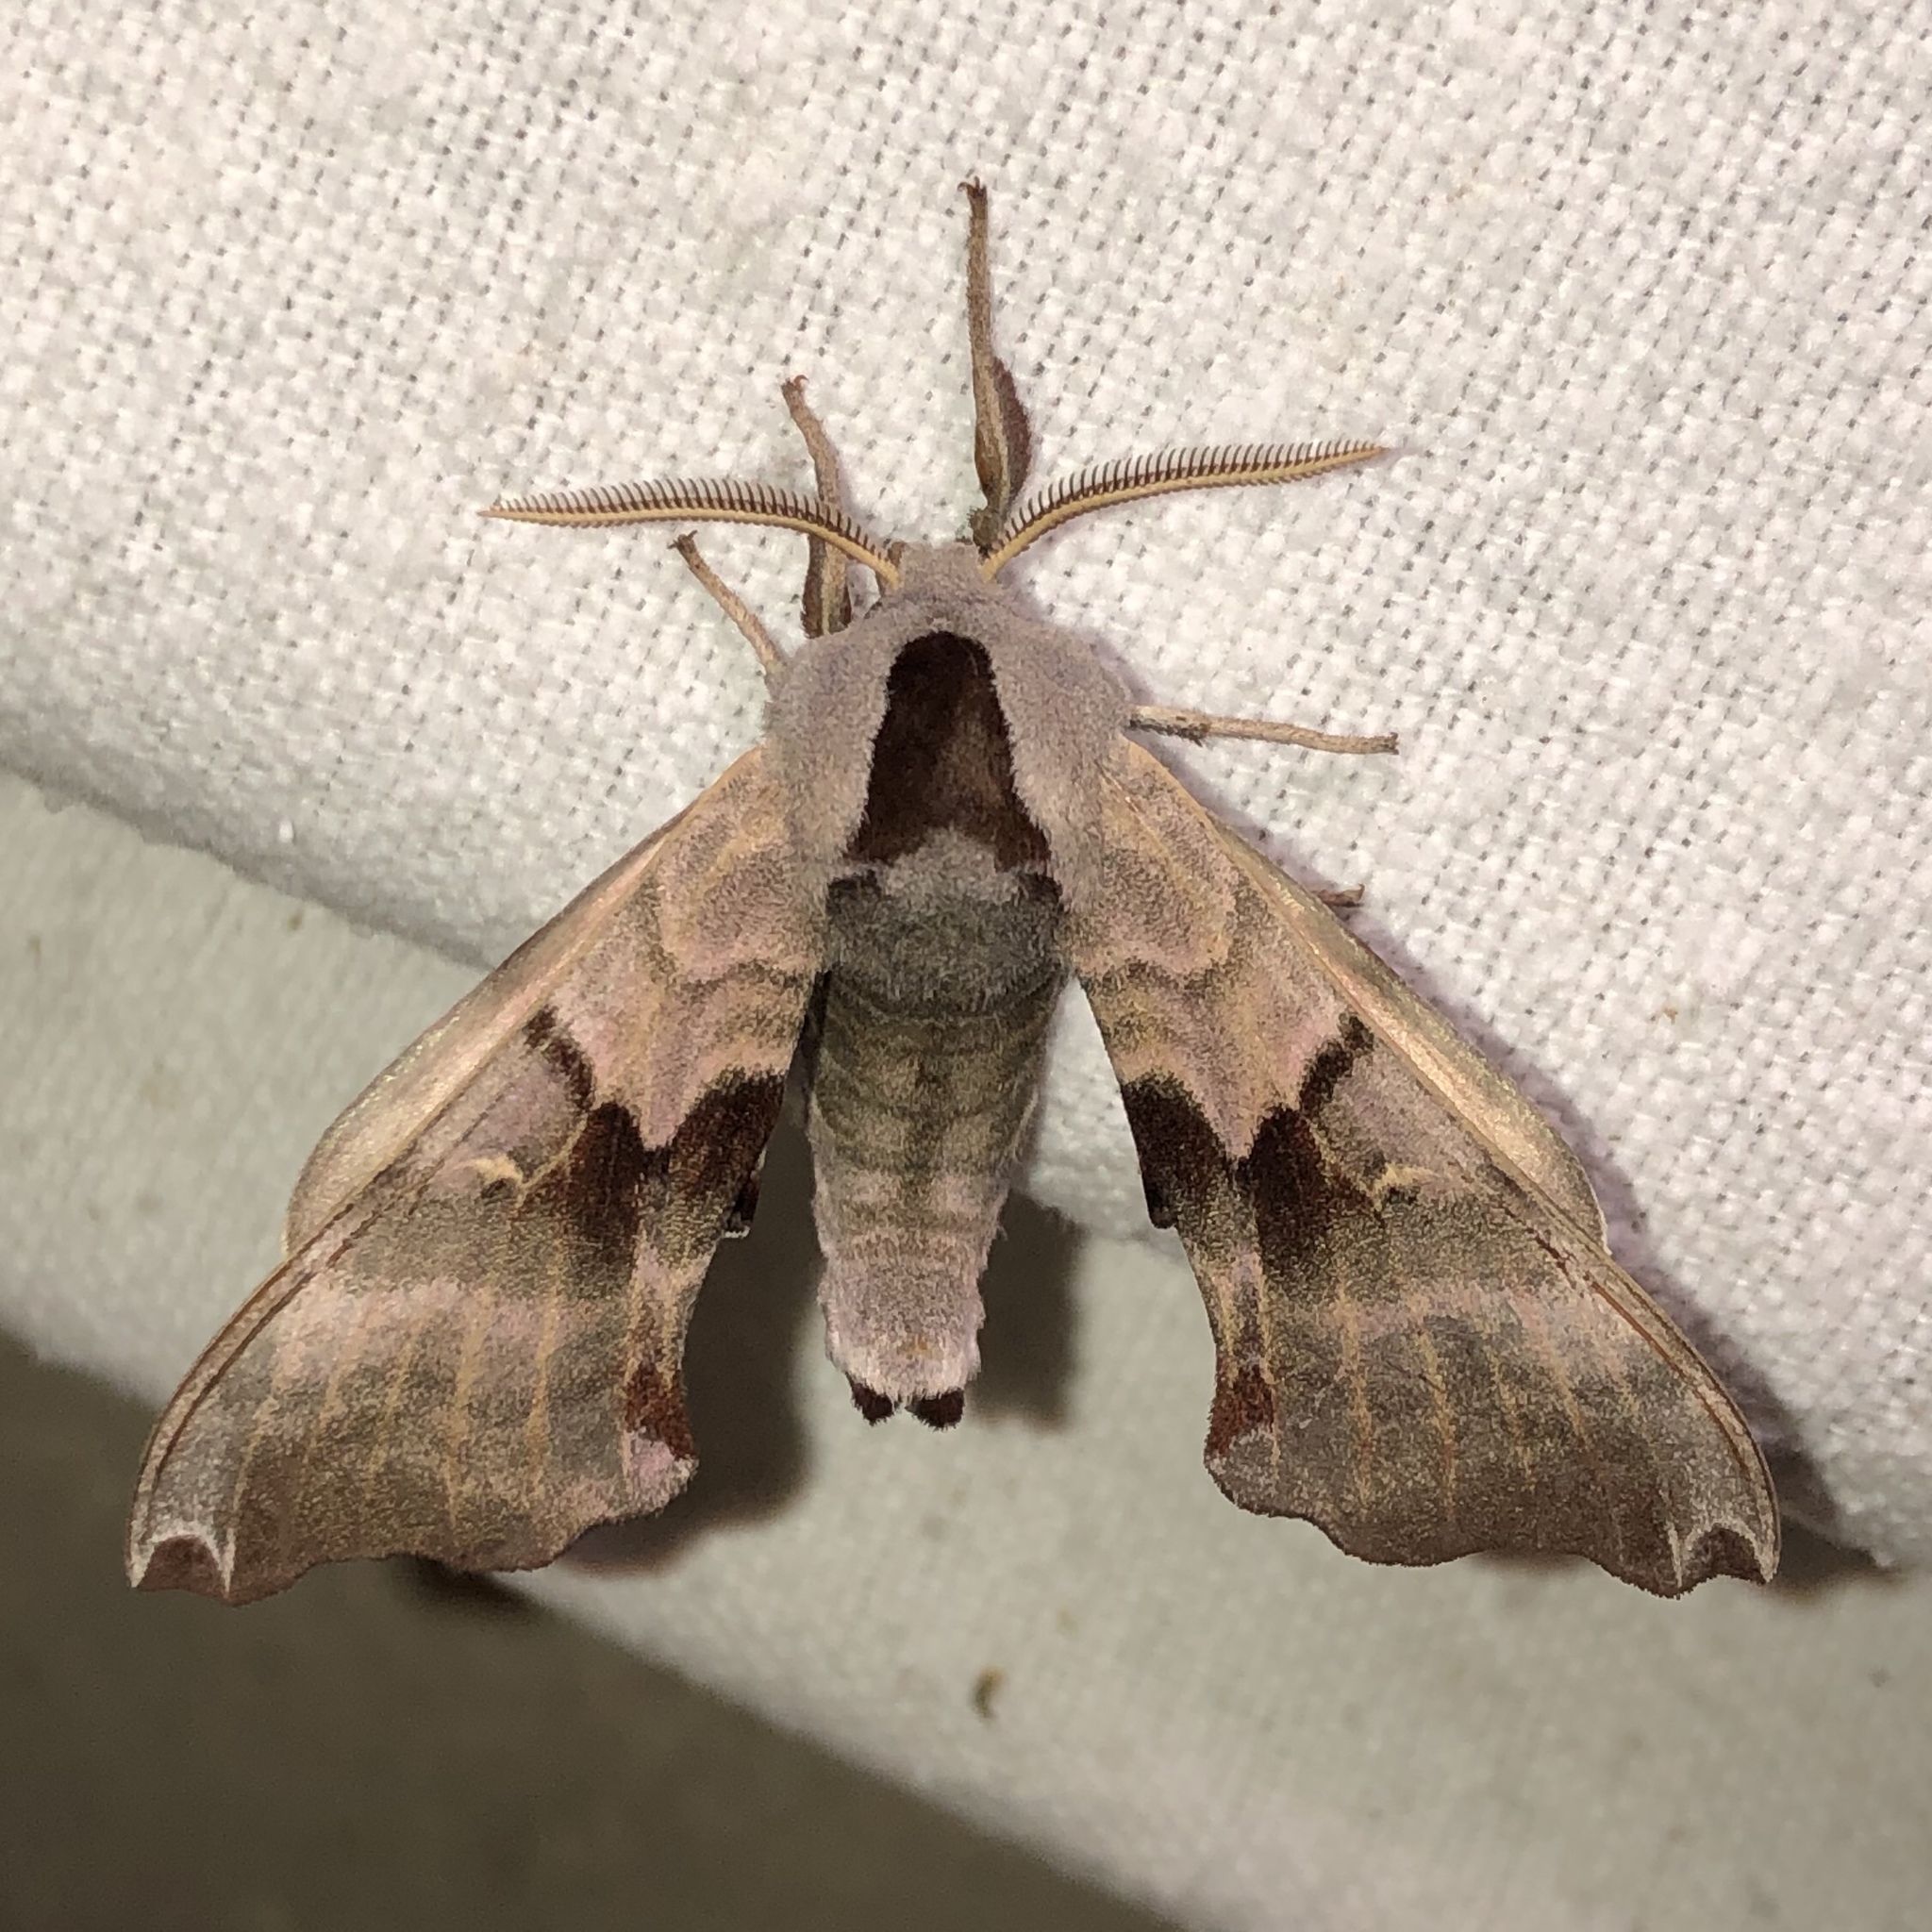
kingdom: Animalia
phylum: Arthropoda
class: Insecta
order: Lepidoptera
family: Sphingidae
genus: Smerinthus
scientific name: Smerinthus jamaicensis
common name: Twin spotted sphinx
